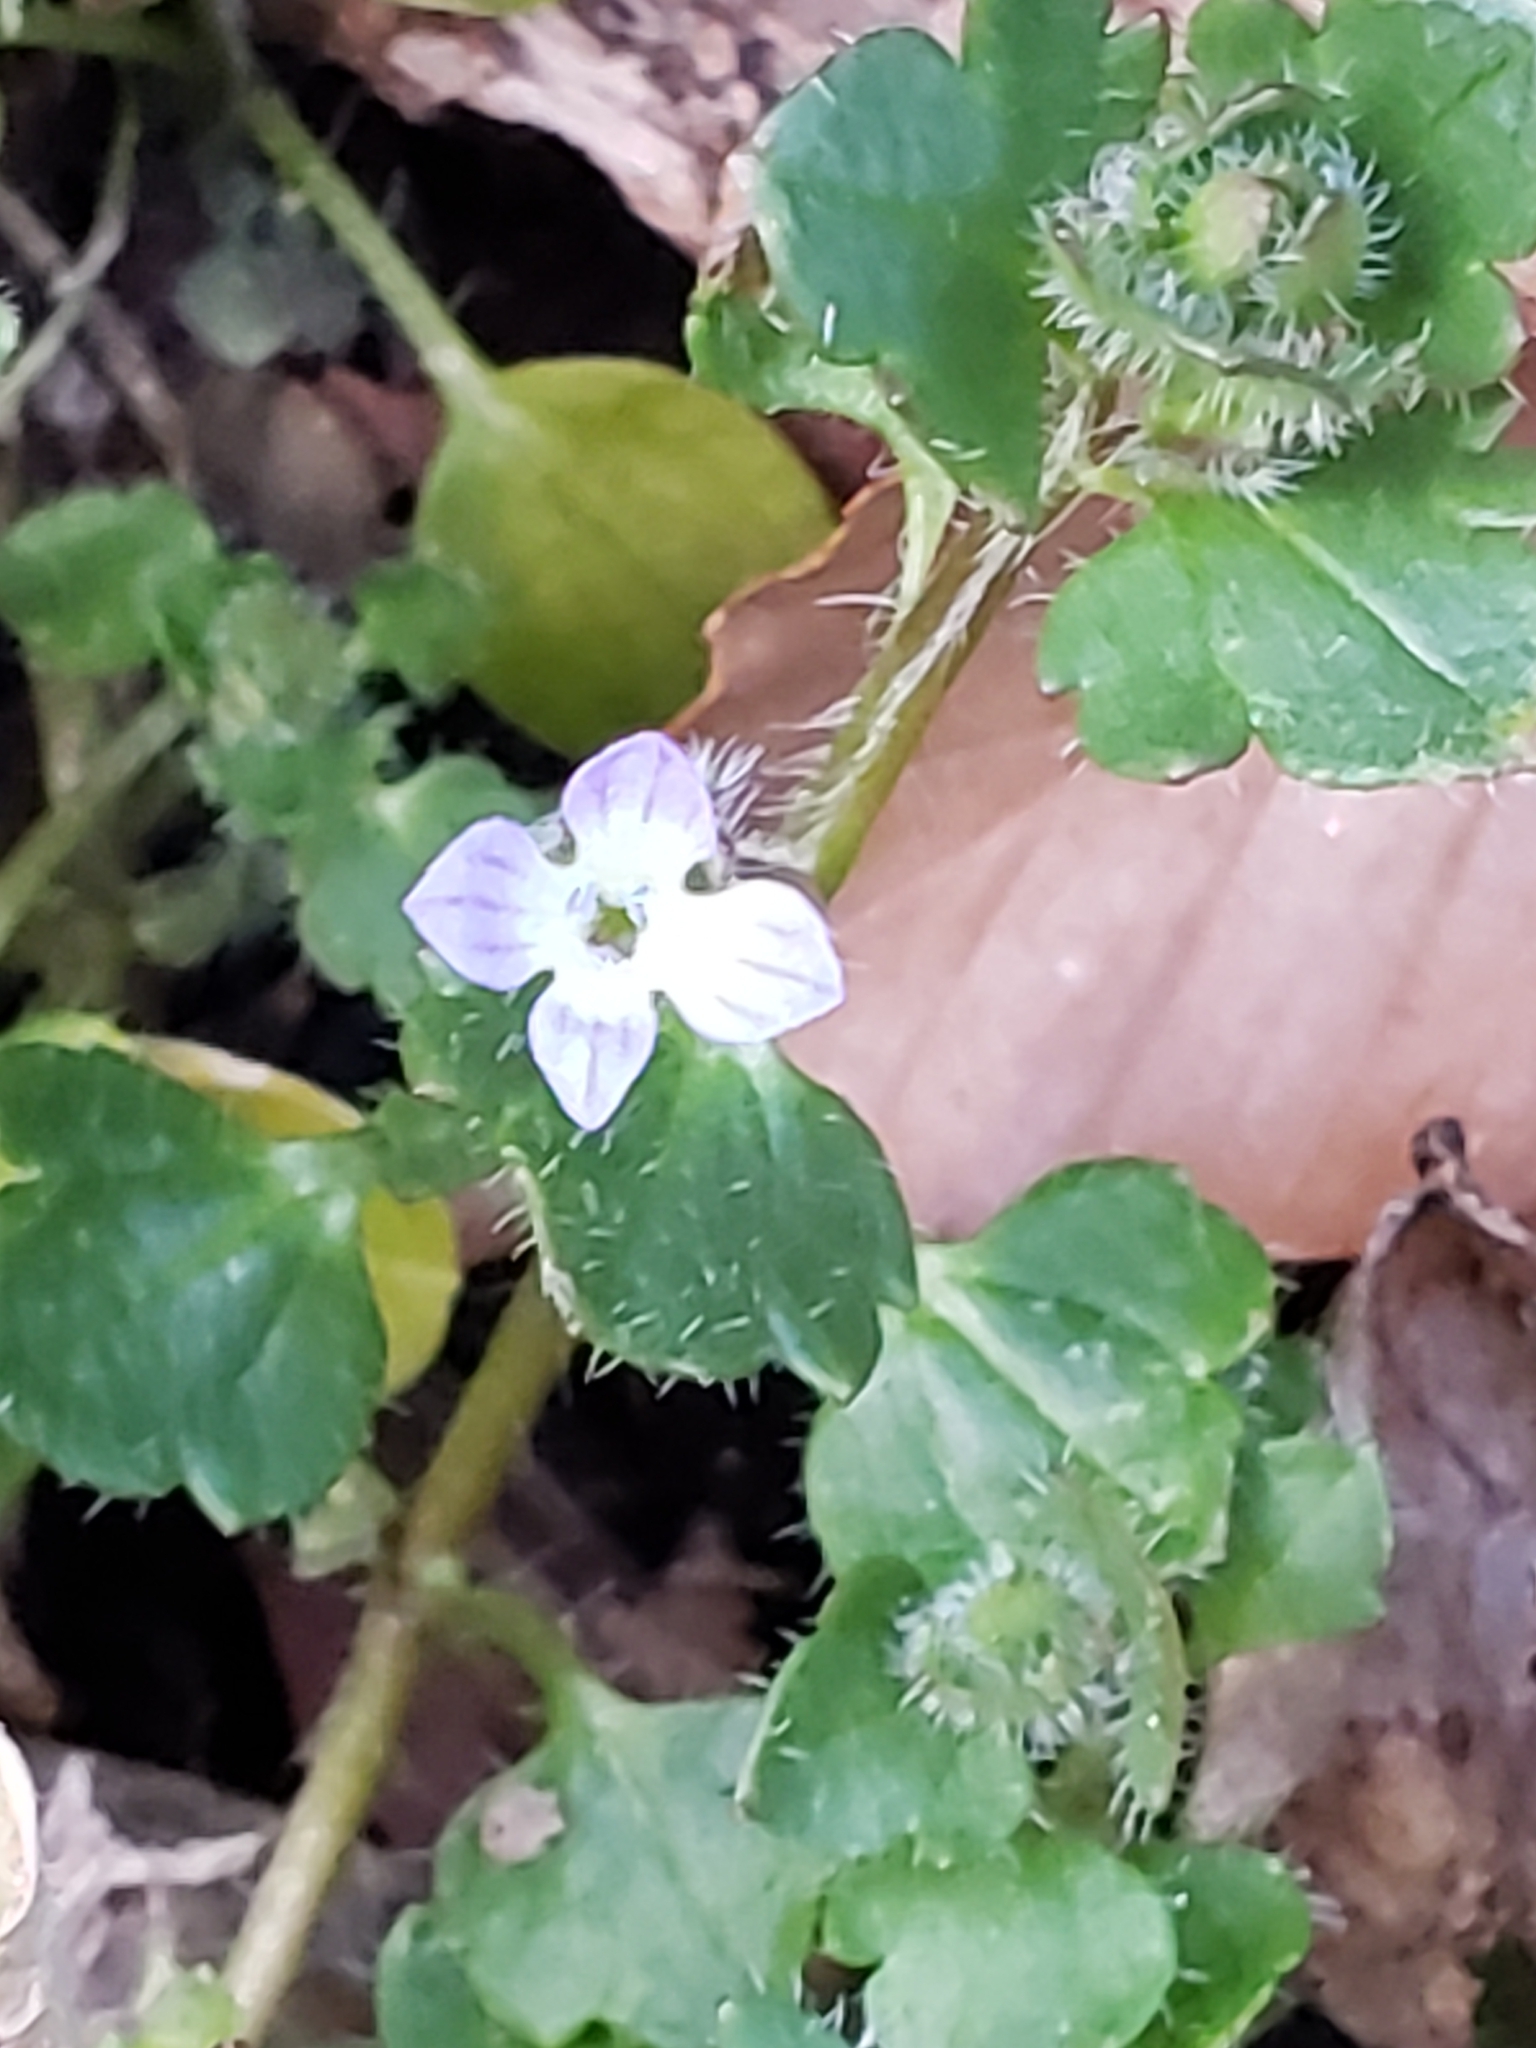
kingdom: Plantae
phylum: Tracheophyta
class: Magnoliopsida
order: Lamiales
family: Plantaginaceae
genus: Veronica
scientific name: Veronica hederifolia
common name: Ivy-leaved speedwell
